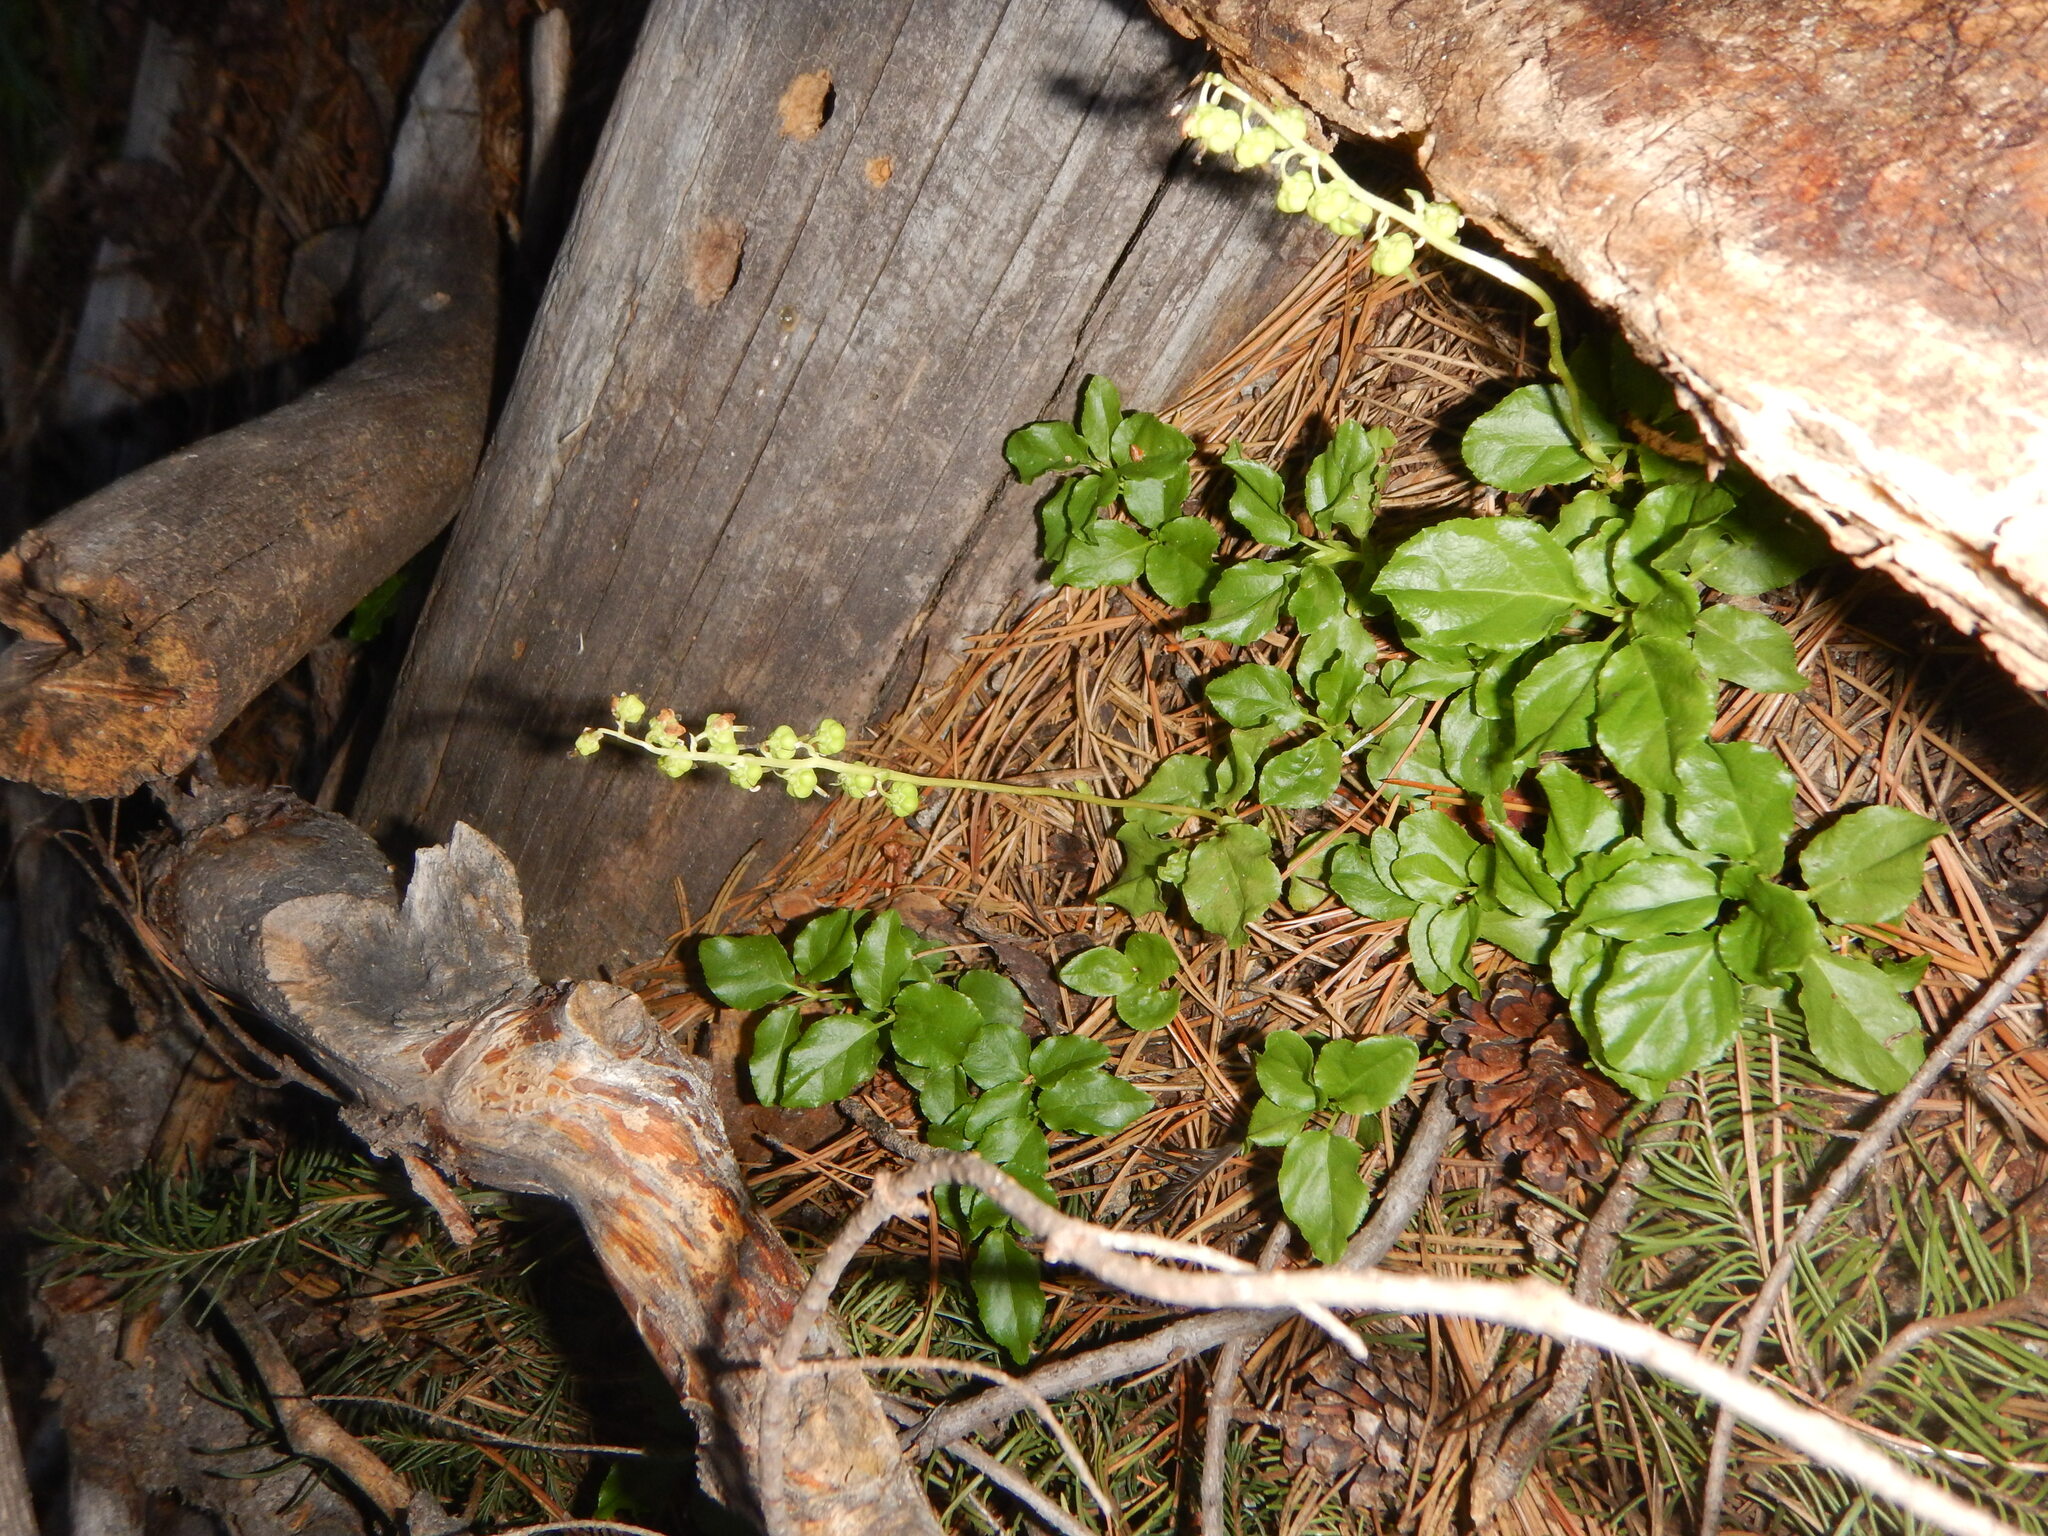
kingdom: Plantae
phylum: Tracheophyta
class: Magnoliopsida
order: Ericales
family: Ericaceae
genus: Orthilia
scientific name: Orthilia secunda
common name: One-sided orthilia
